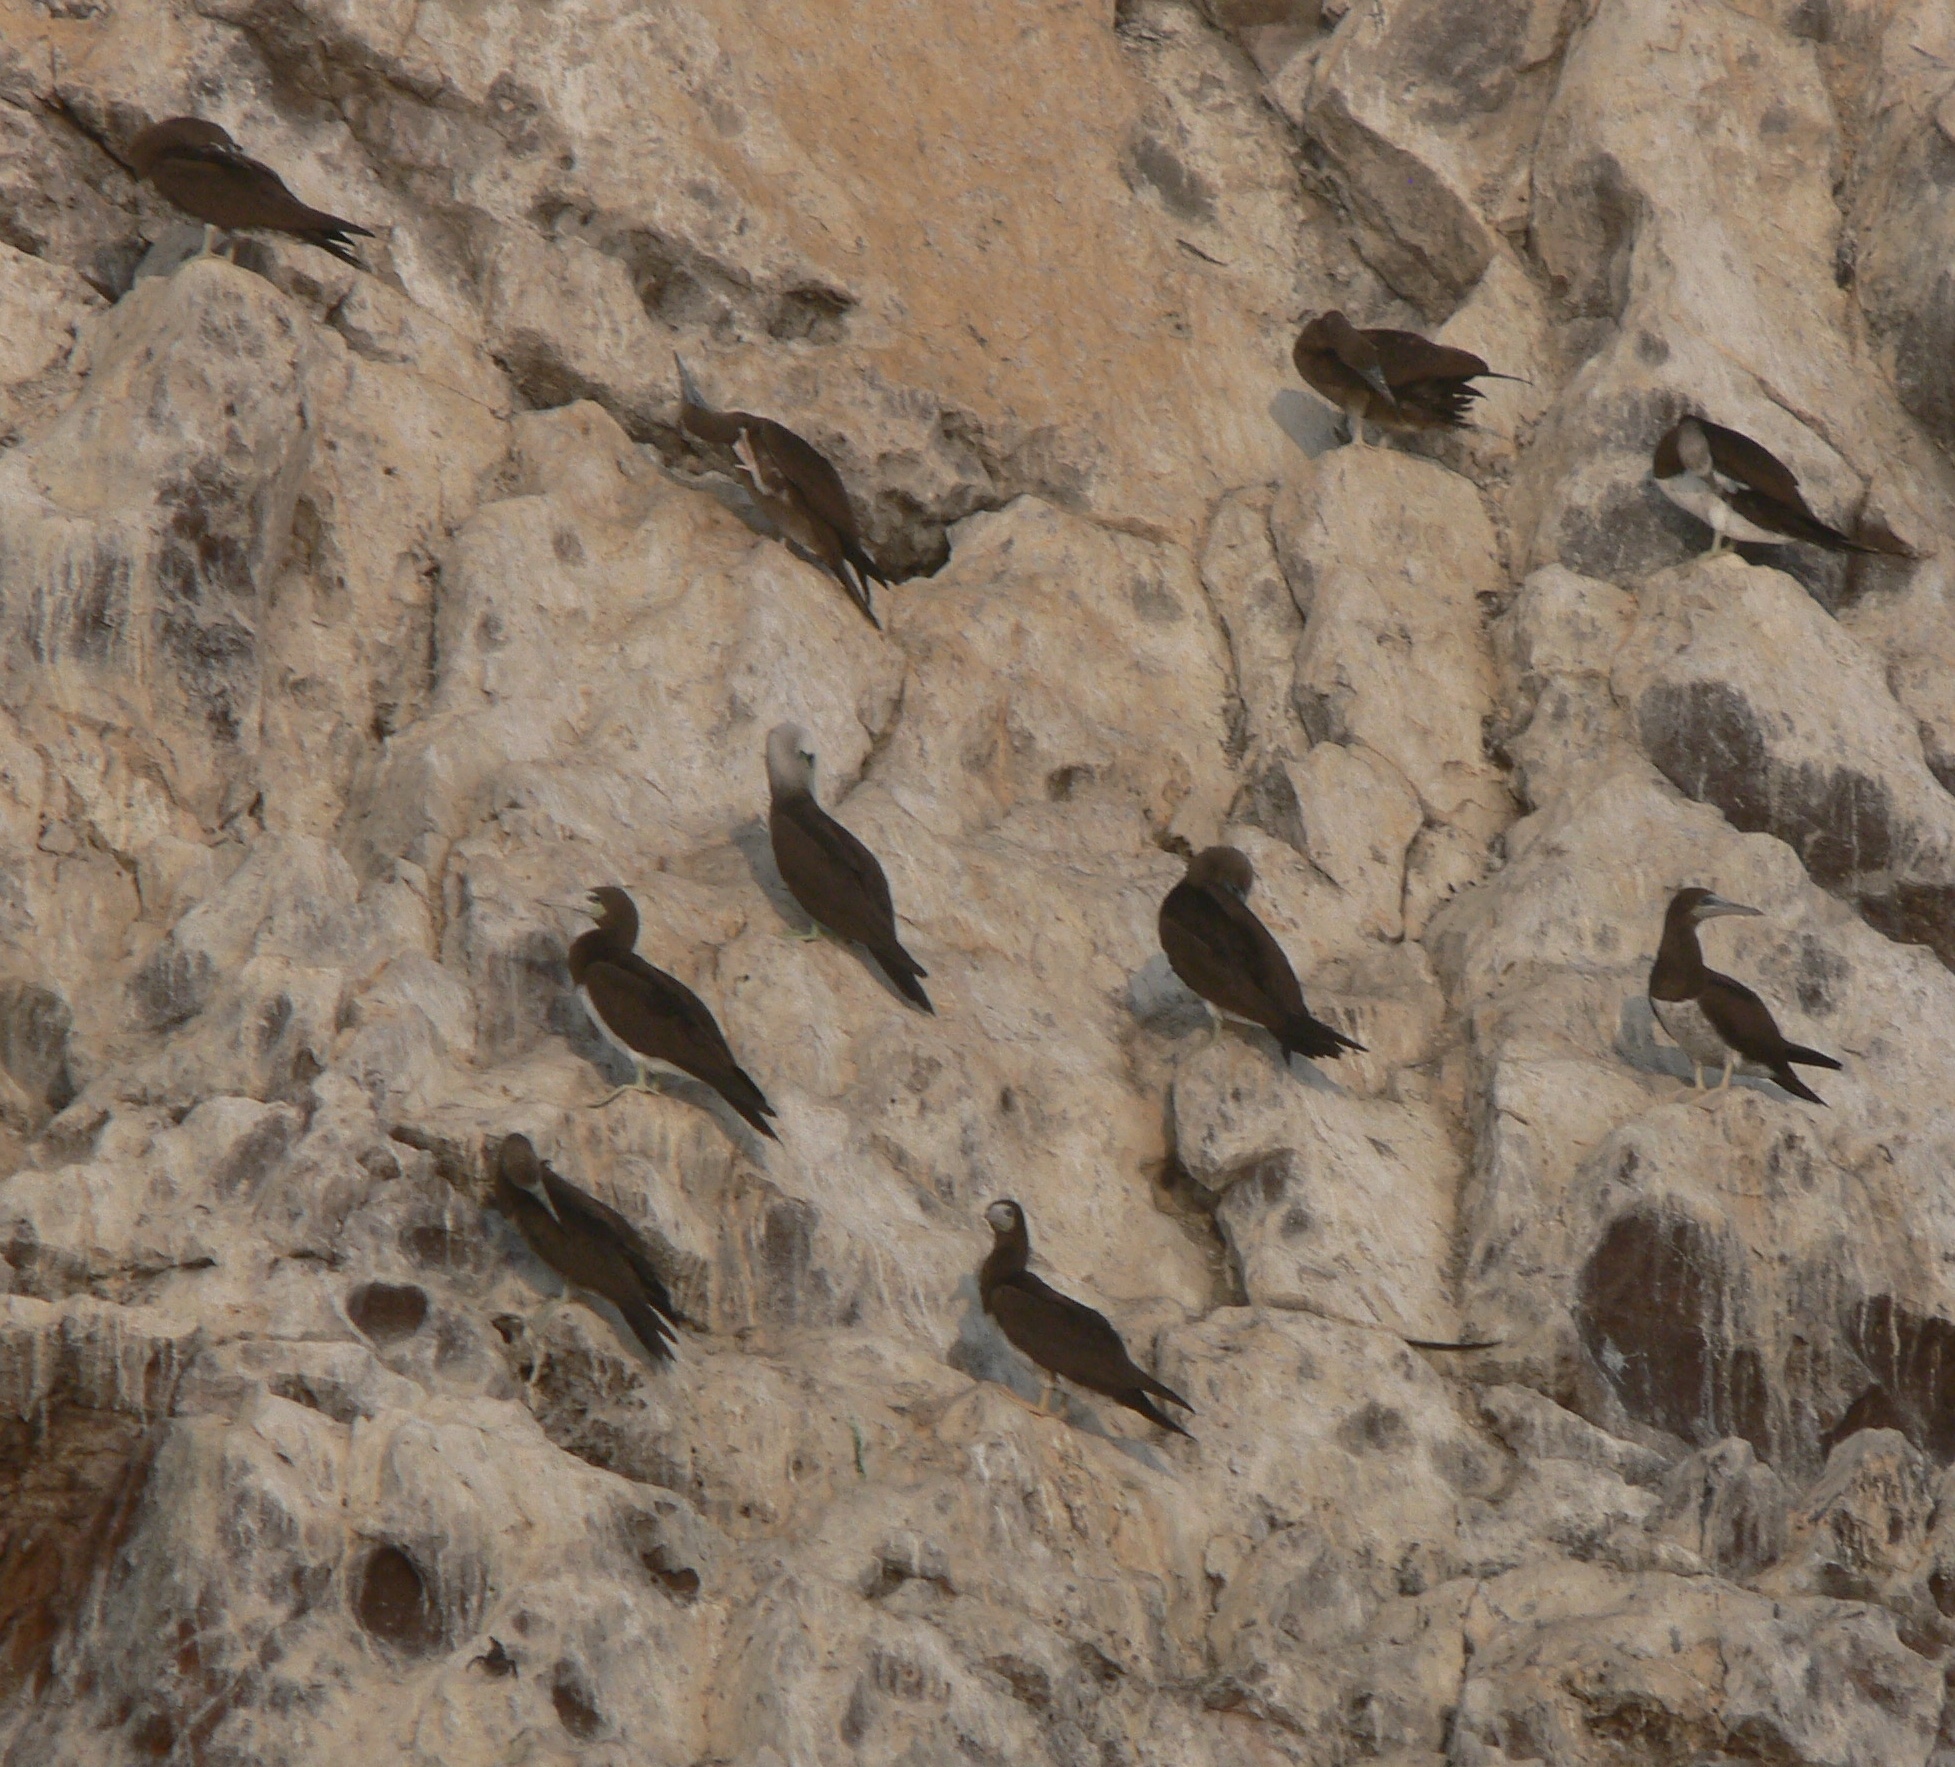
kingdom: Animalia
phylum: Chordata
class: Aves
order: Suliformes
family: Sulidae
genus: Sula
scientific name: Sula leucogaster
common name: Brown booby
